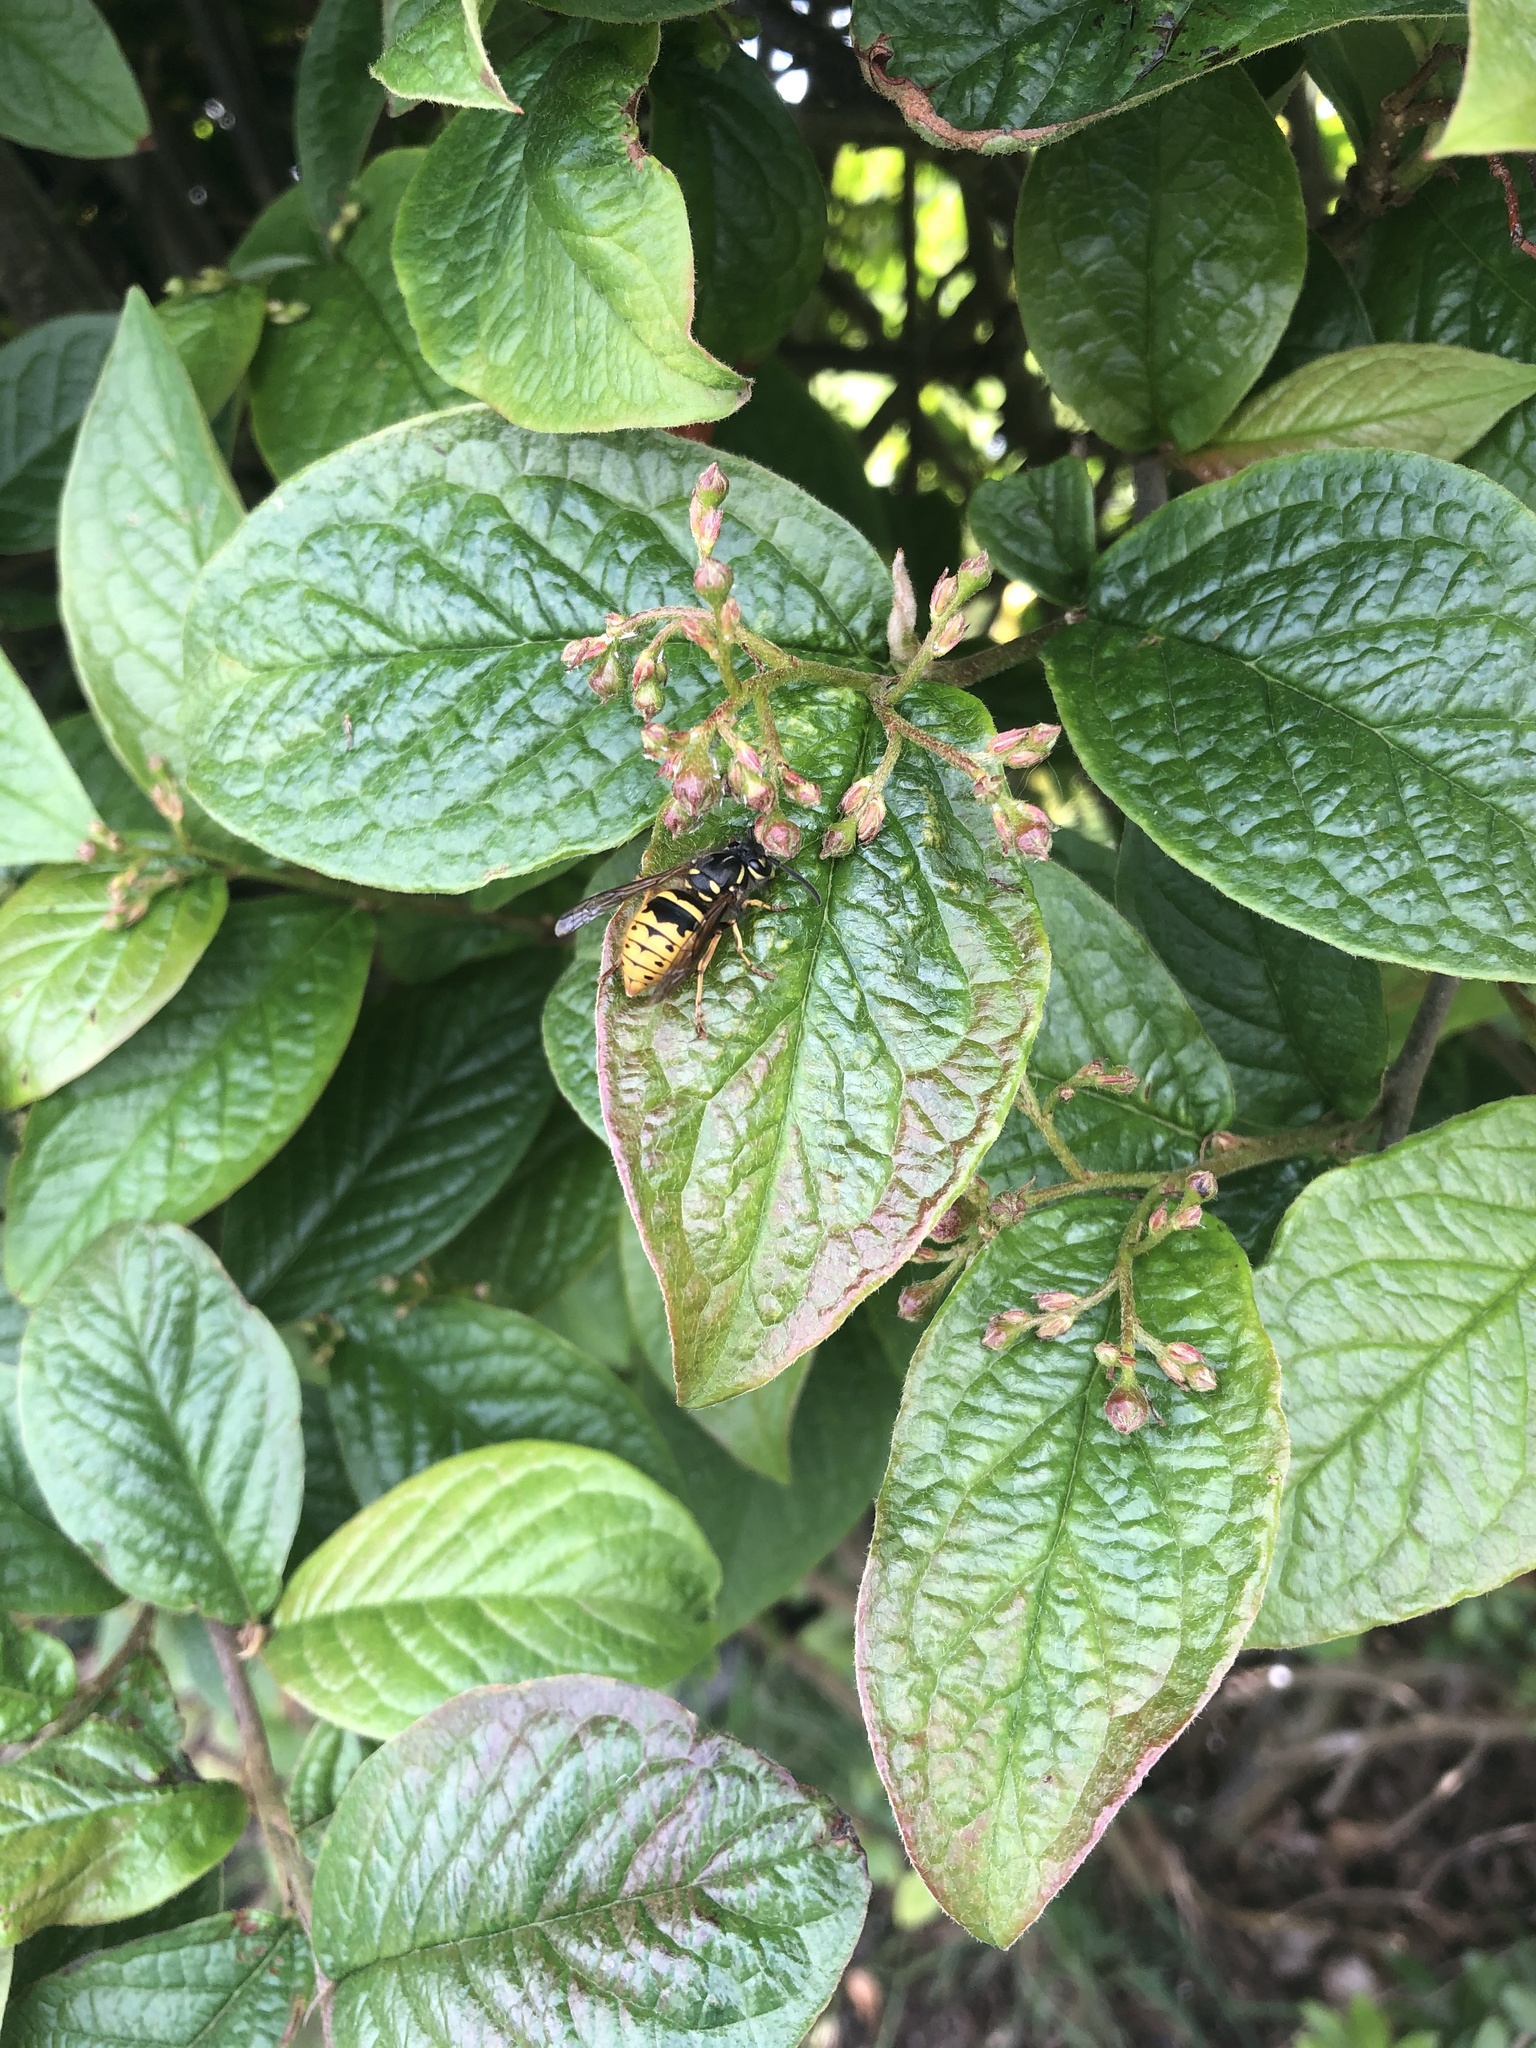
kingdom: Animalia
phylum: Arthropoda
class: Insecta
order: Hymenoptera
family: Vespidae
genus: Vespula
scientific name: Vespula vulgaris
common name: Common wasp
